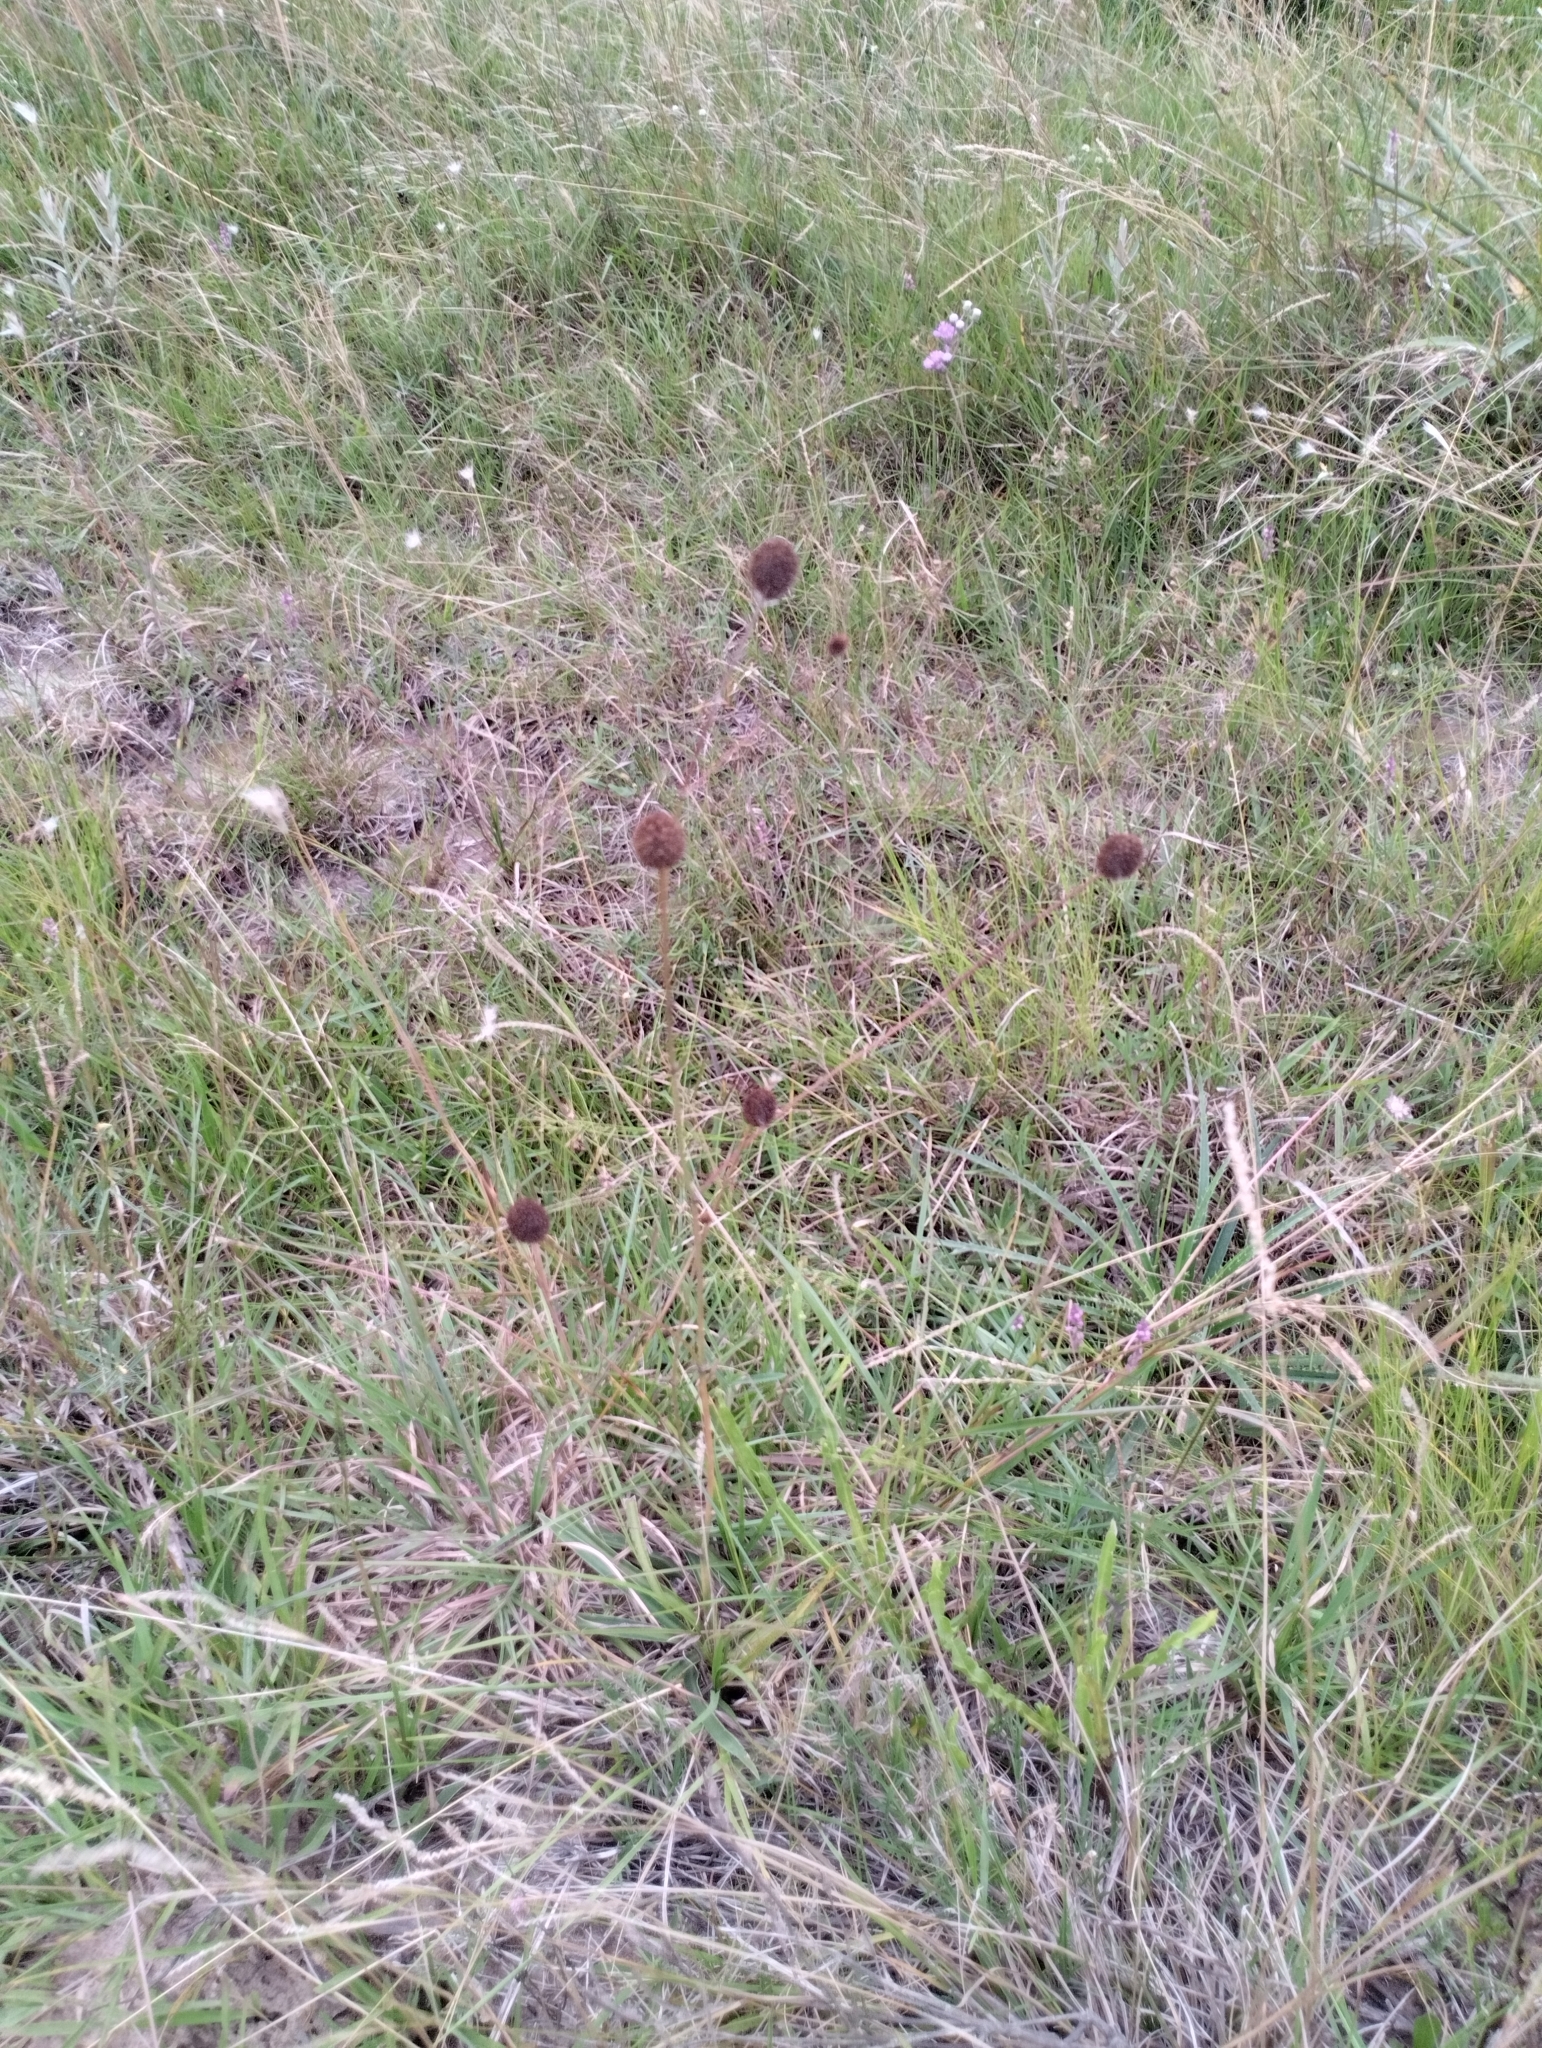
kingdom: Plantae
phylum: Tracheophyta
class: Magnoliopsida
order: Apiales
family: Apiaceae
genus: Eryngium
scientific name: Eryngium sanguisorba
